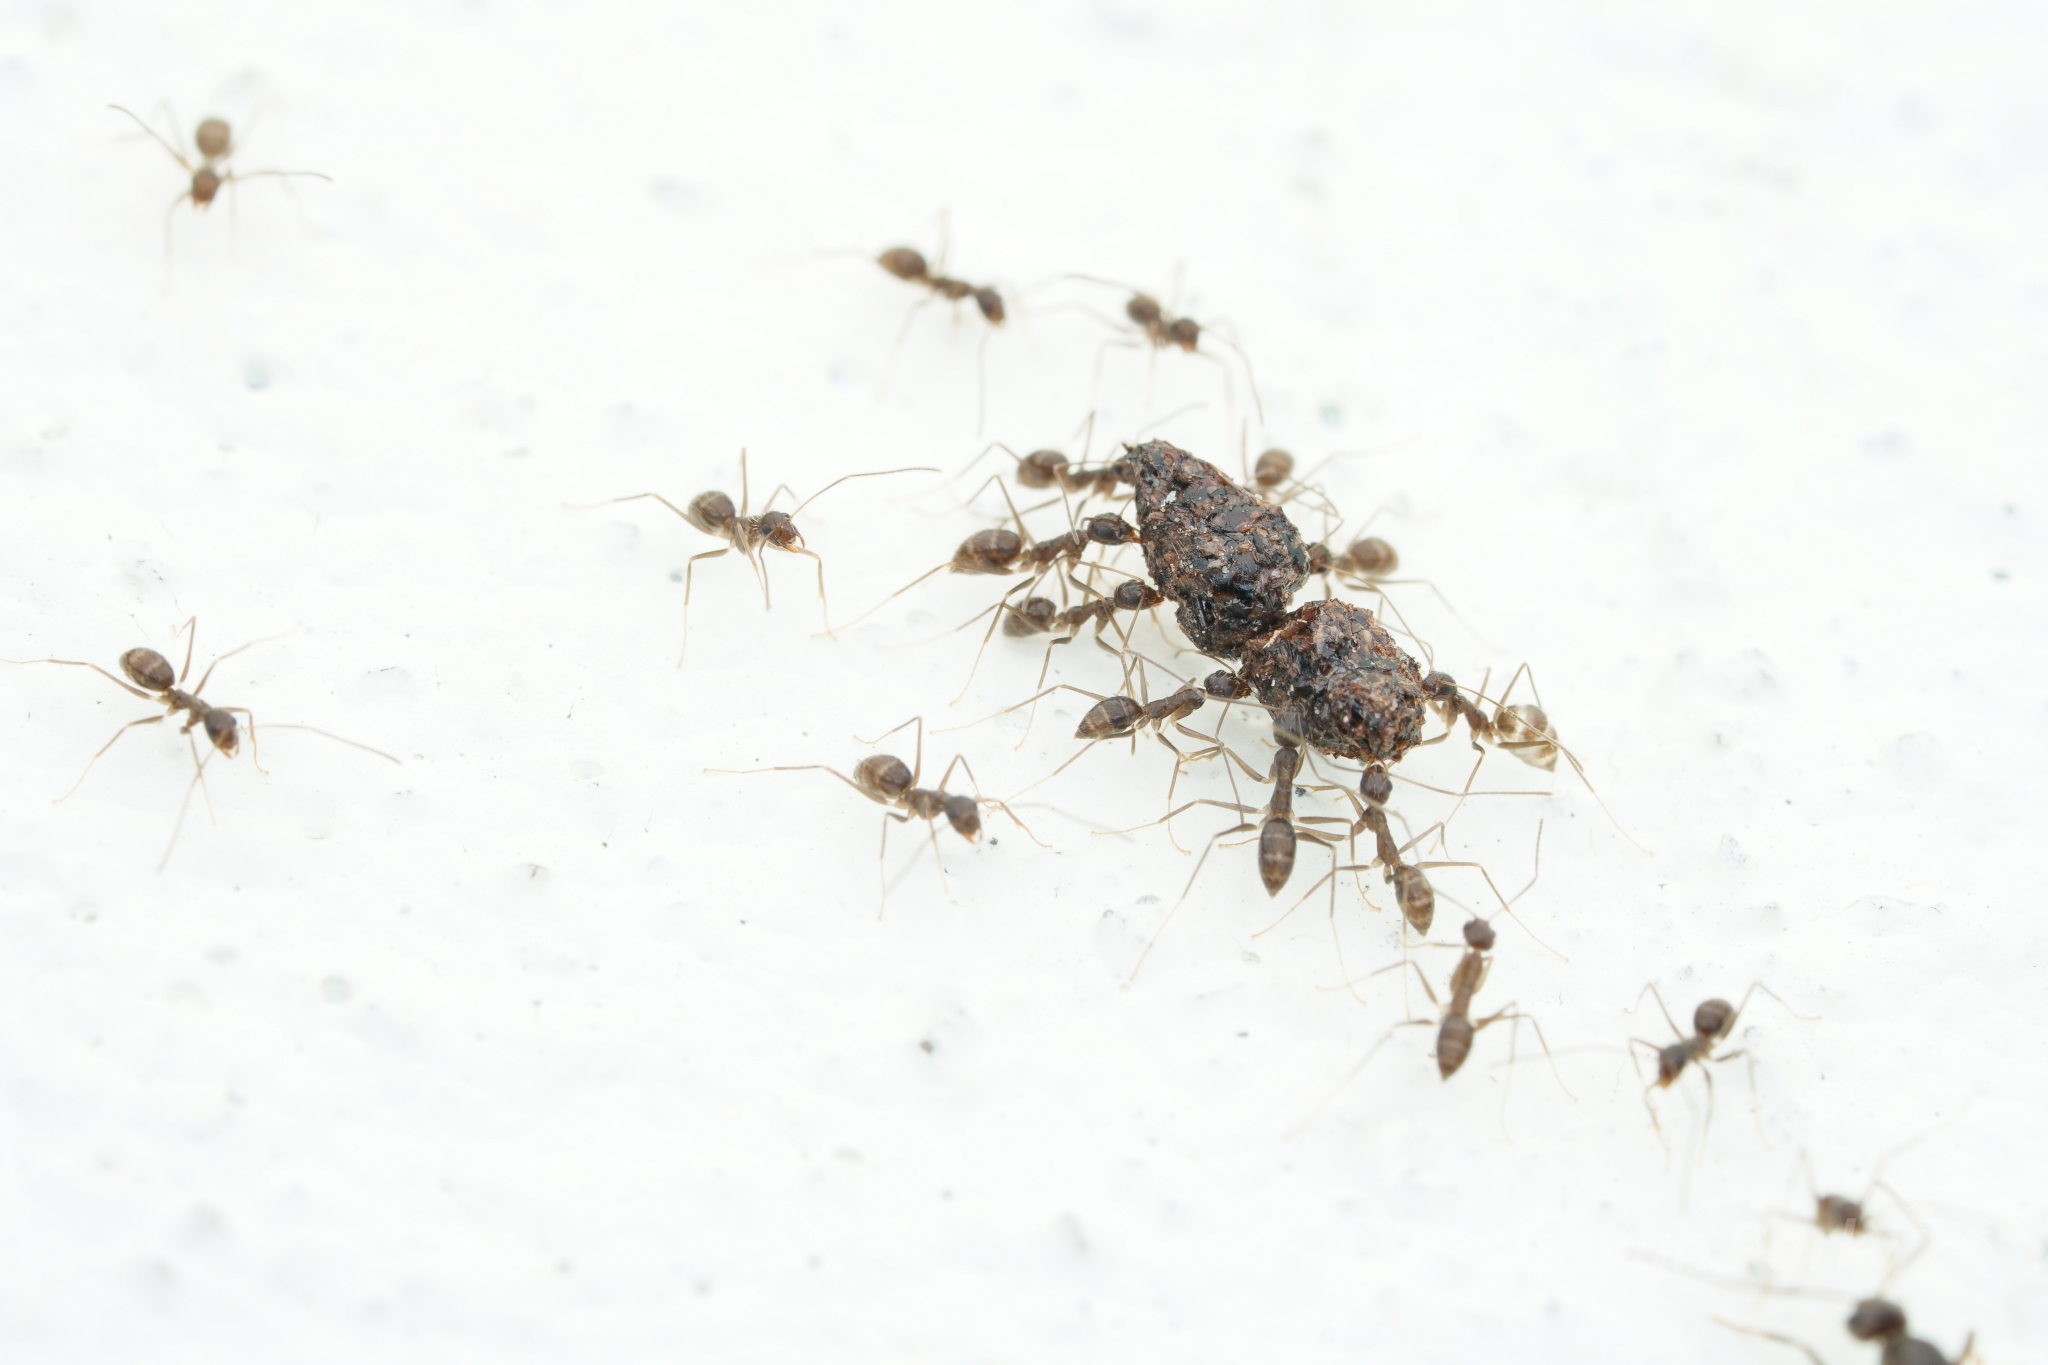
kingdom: Animalia
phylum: Arthropoda
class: Insecta
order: Hymenoptera
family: Formicidae
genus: Paratrechina
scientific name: Paratrechina longicornis
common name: Longhorned crazy ant
